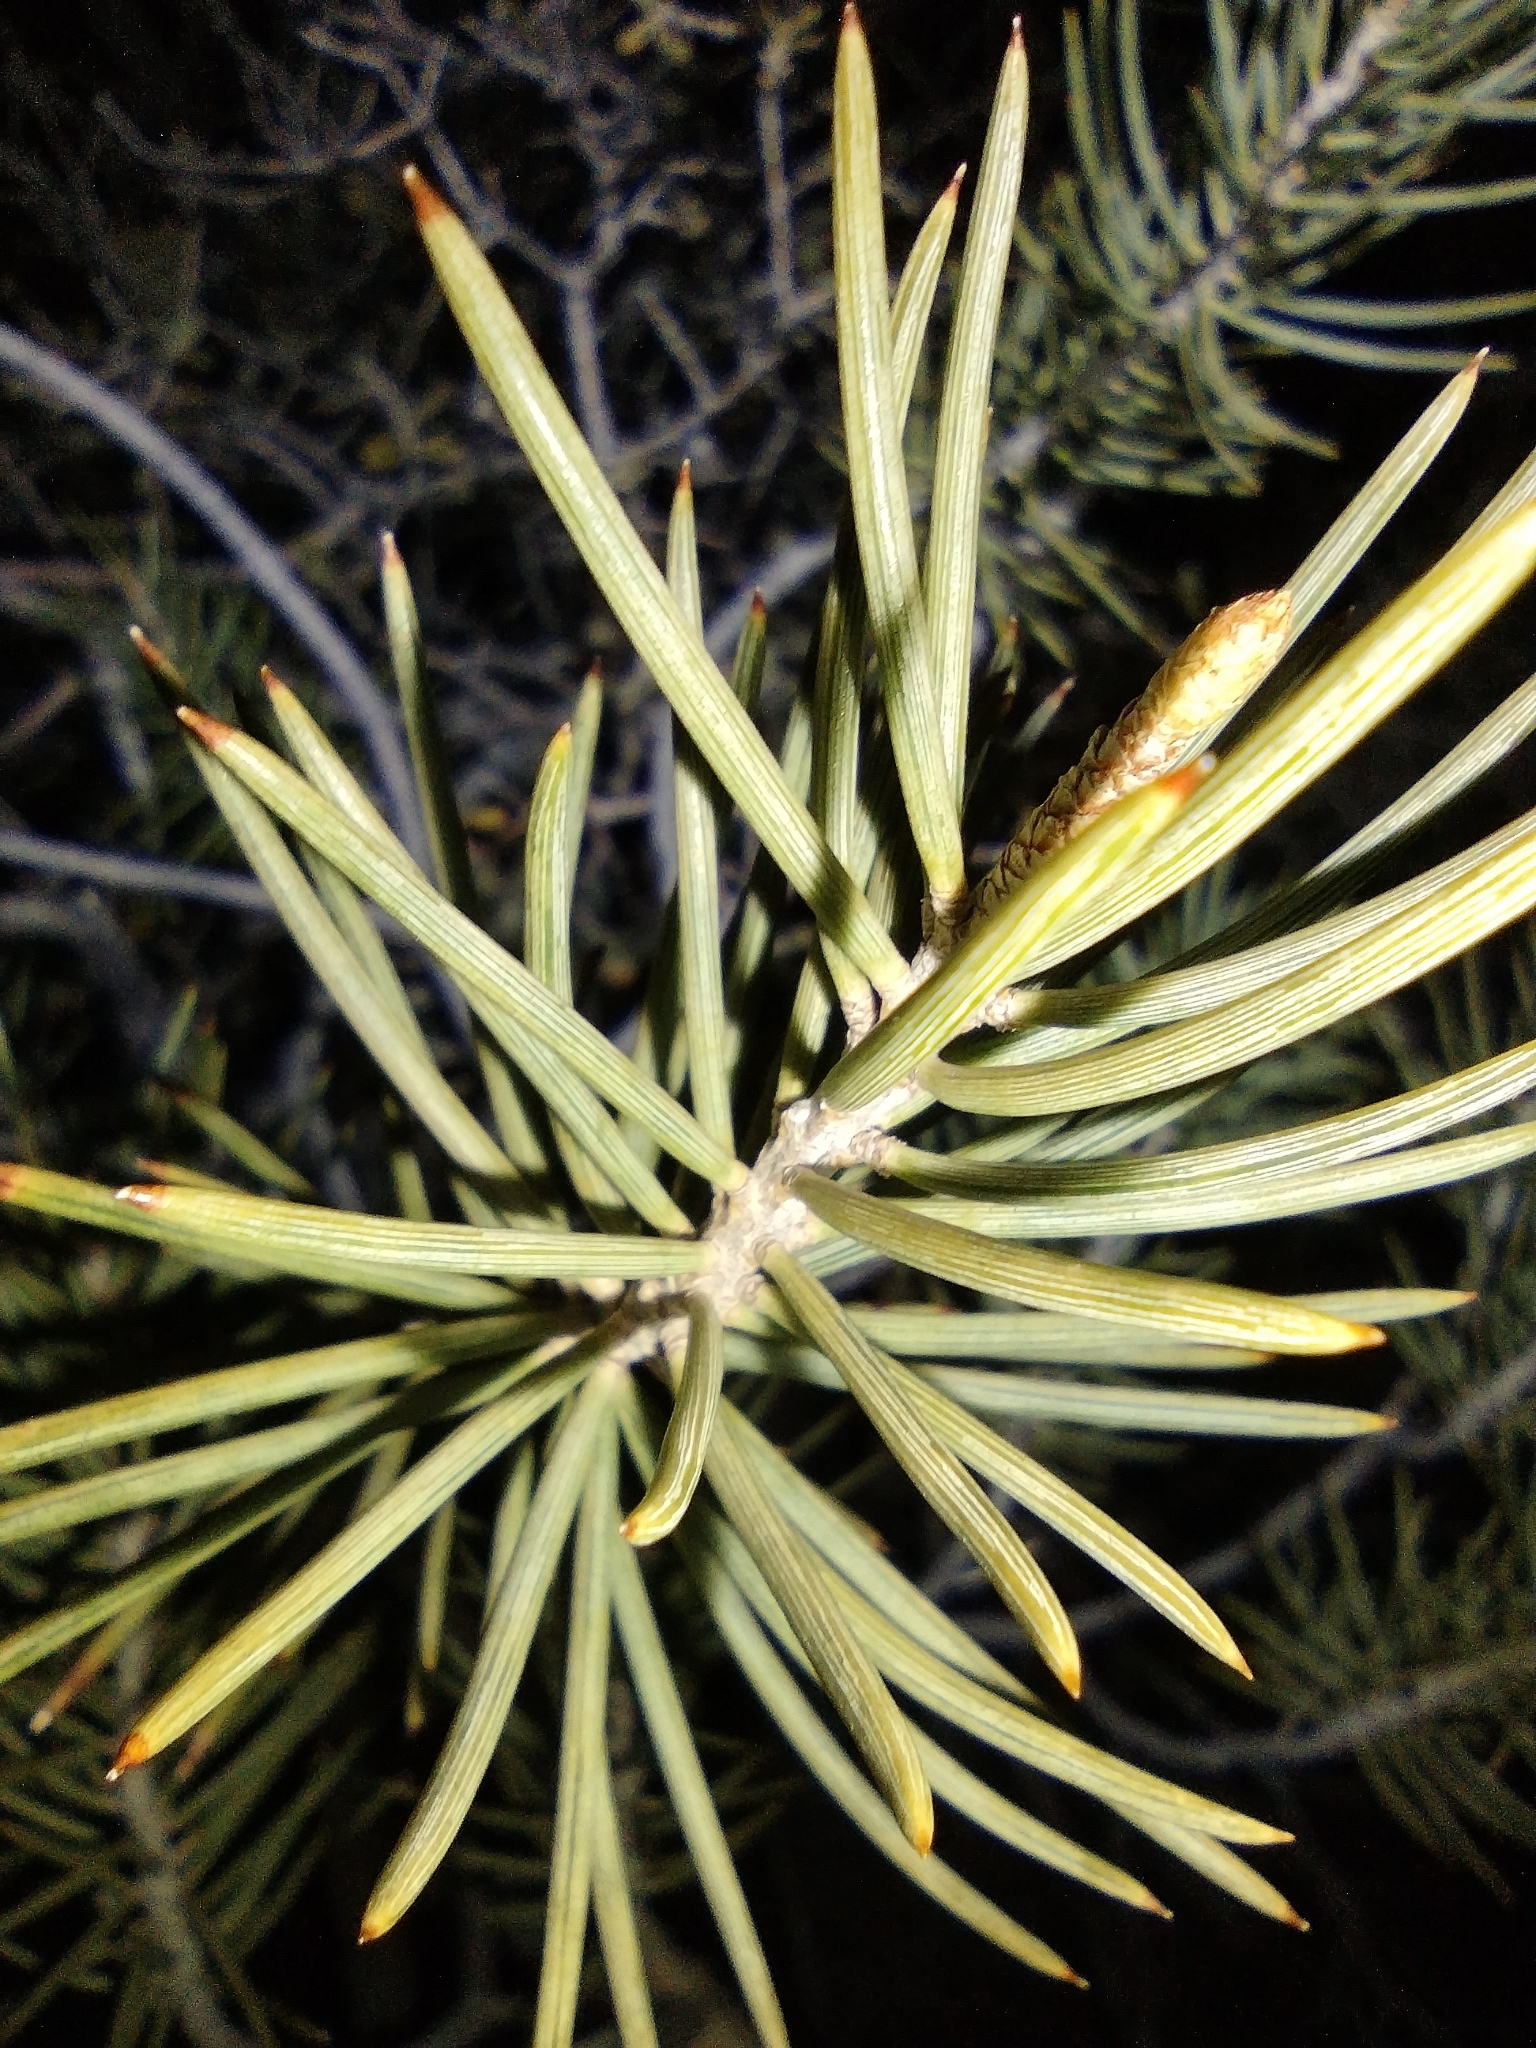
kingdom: Plantae
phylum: Tracheophyta
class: Pinopsida
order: Pinales
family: Pinaceae
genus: Pinus
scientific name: Pinus monophylla
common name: One-leaved nut pine
